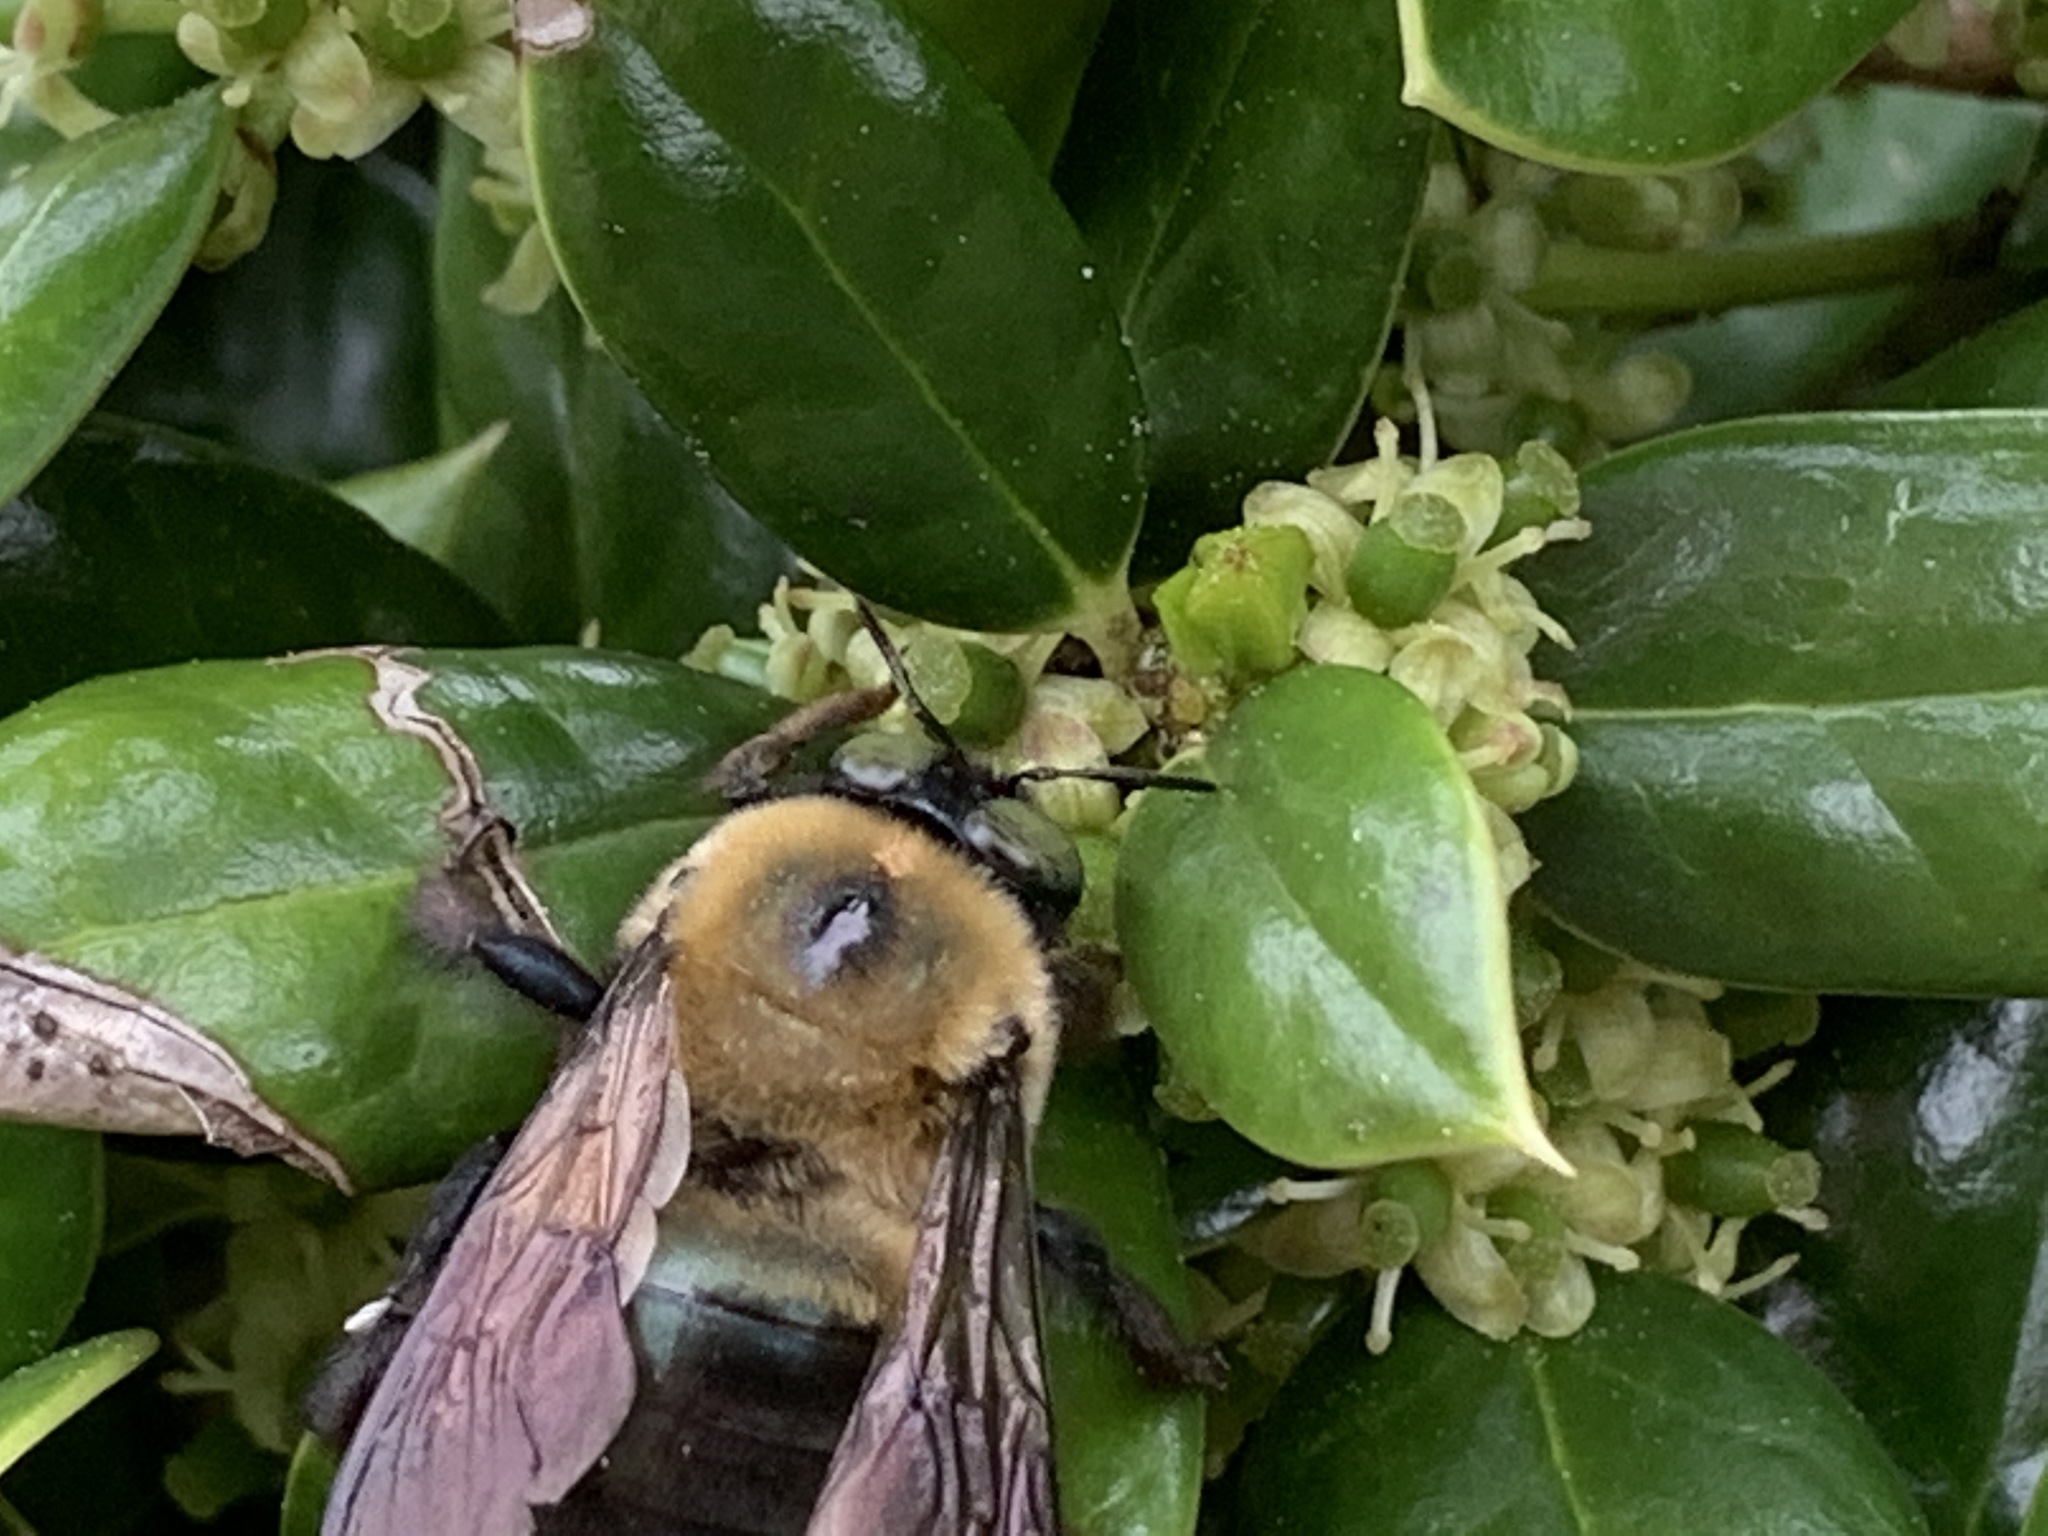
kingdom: Animalia
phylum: Arthropoda
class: Insecta
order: Hymenoptera
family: Apidae
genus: Xylocopa
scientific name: Xylocopa virginica
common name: Carpenter bee
